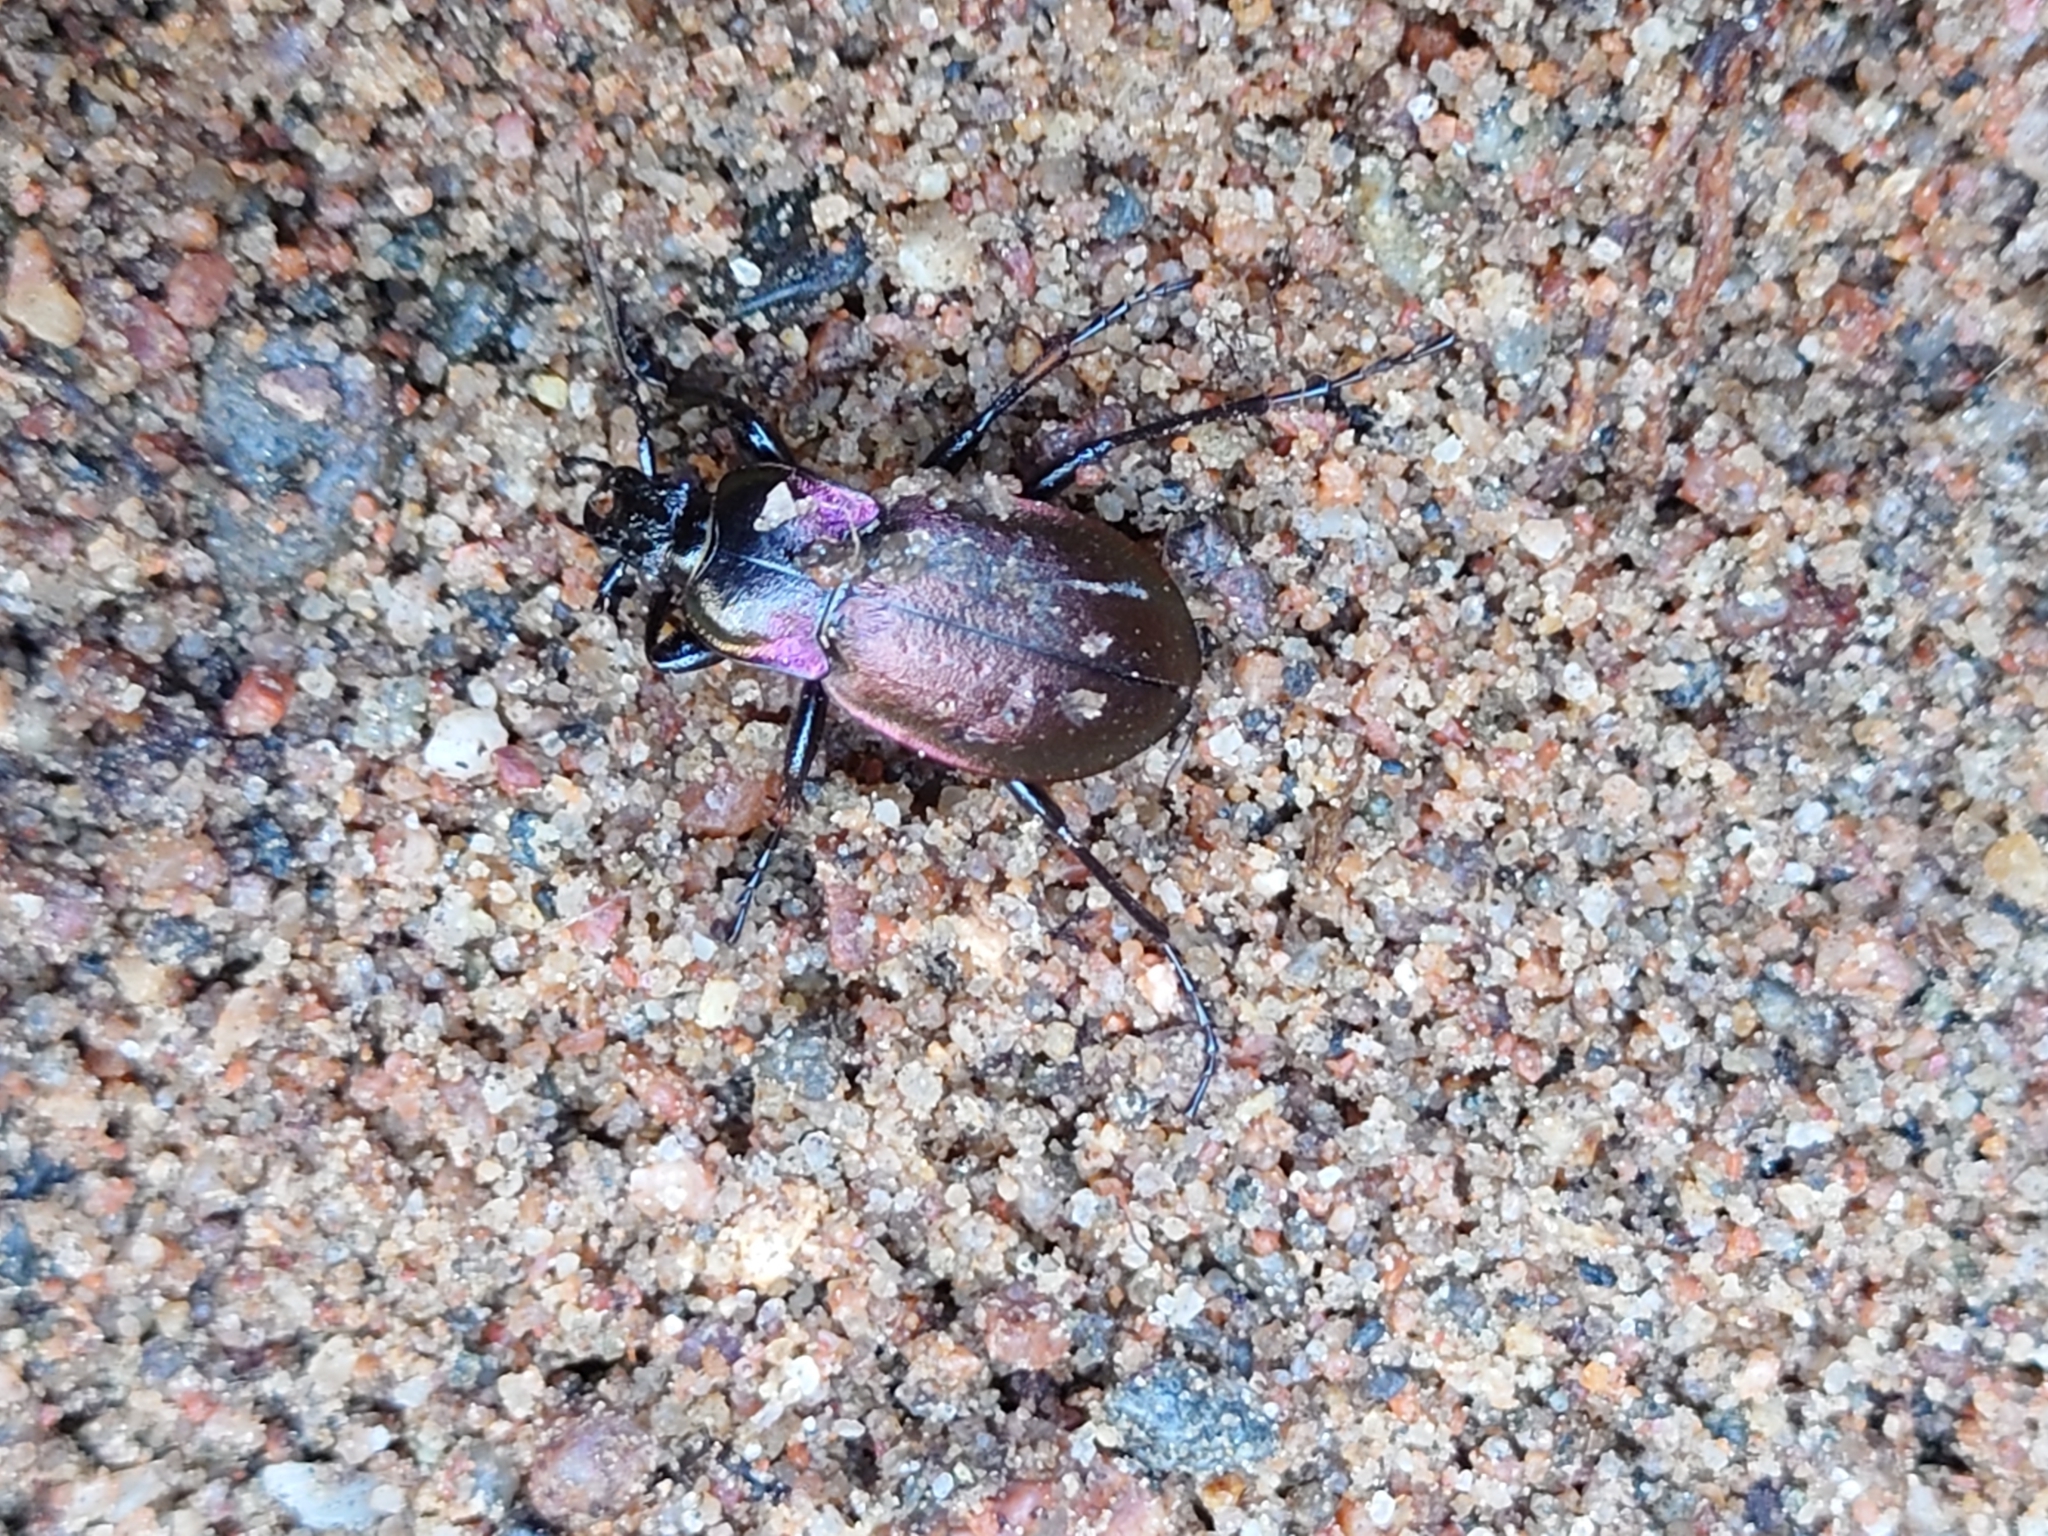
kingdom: Animalia
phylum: Arthropoda
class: Insecta
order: Coleoptera
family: Carabidae
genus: Carabus
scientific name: Carabus nemoralis
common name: European ground beetle
